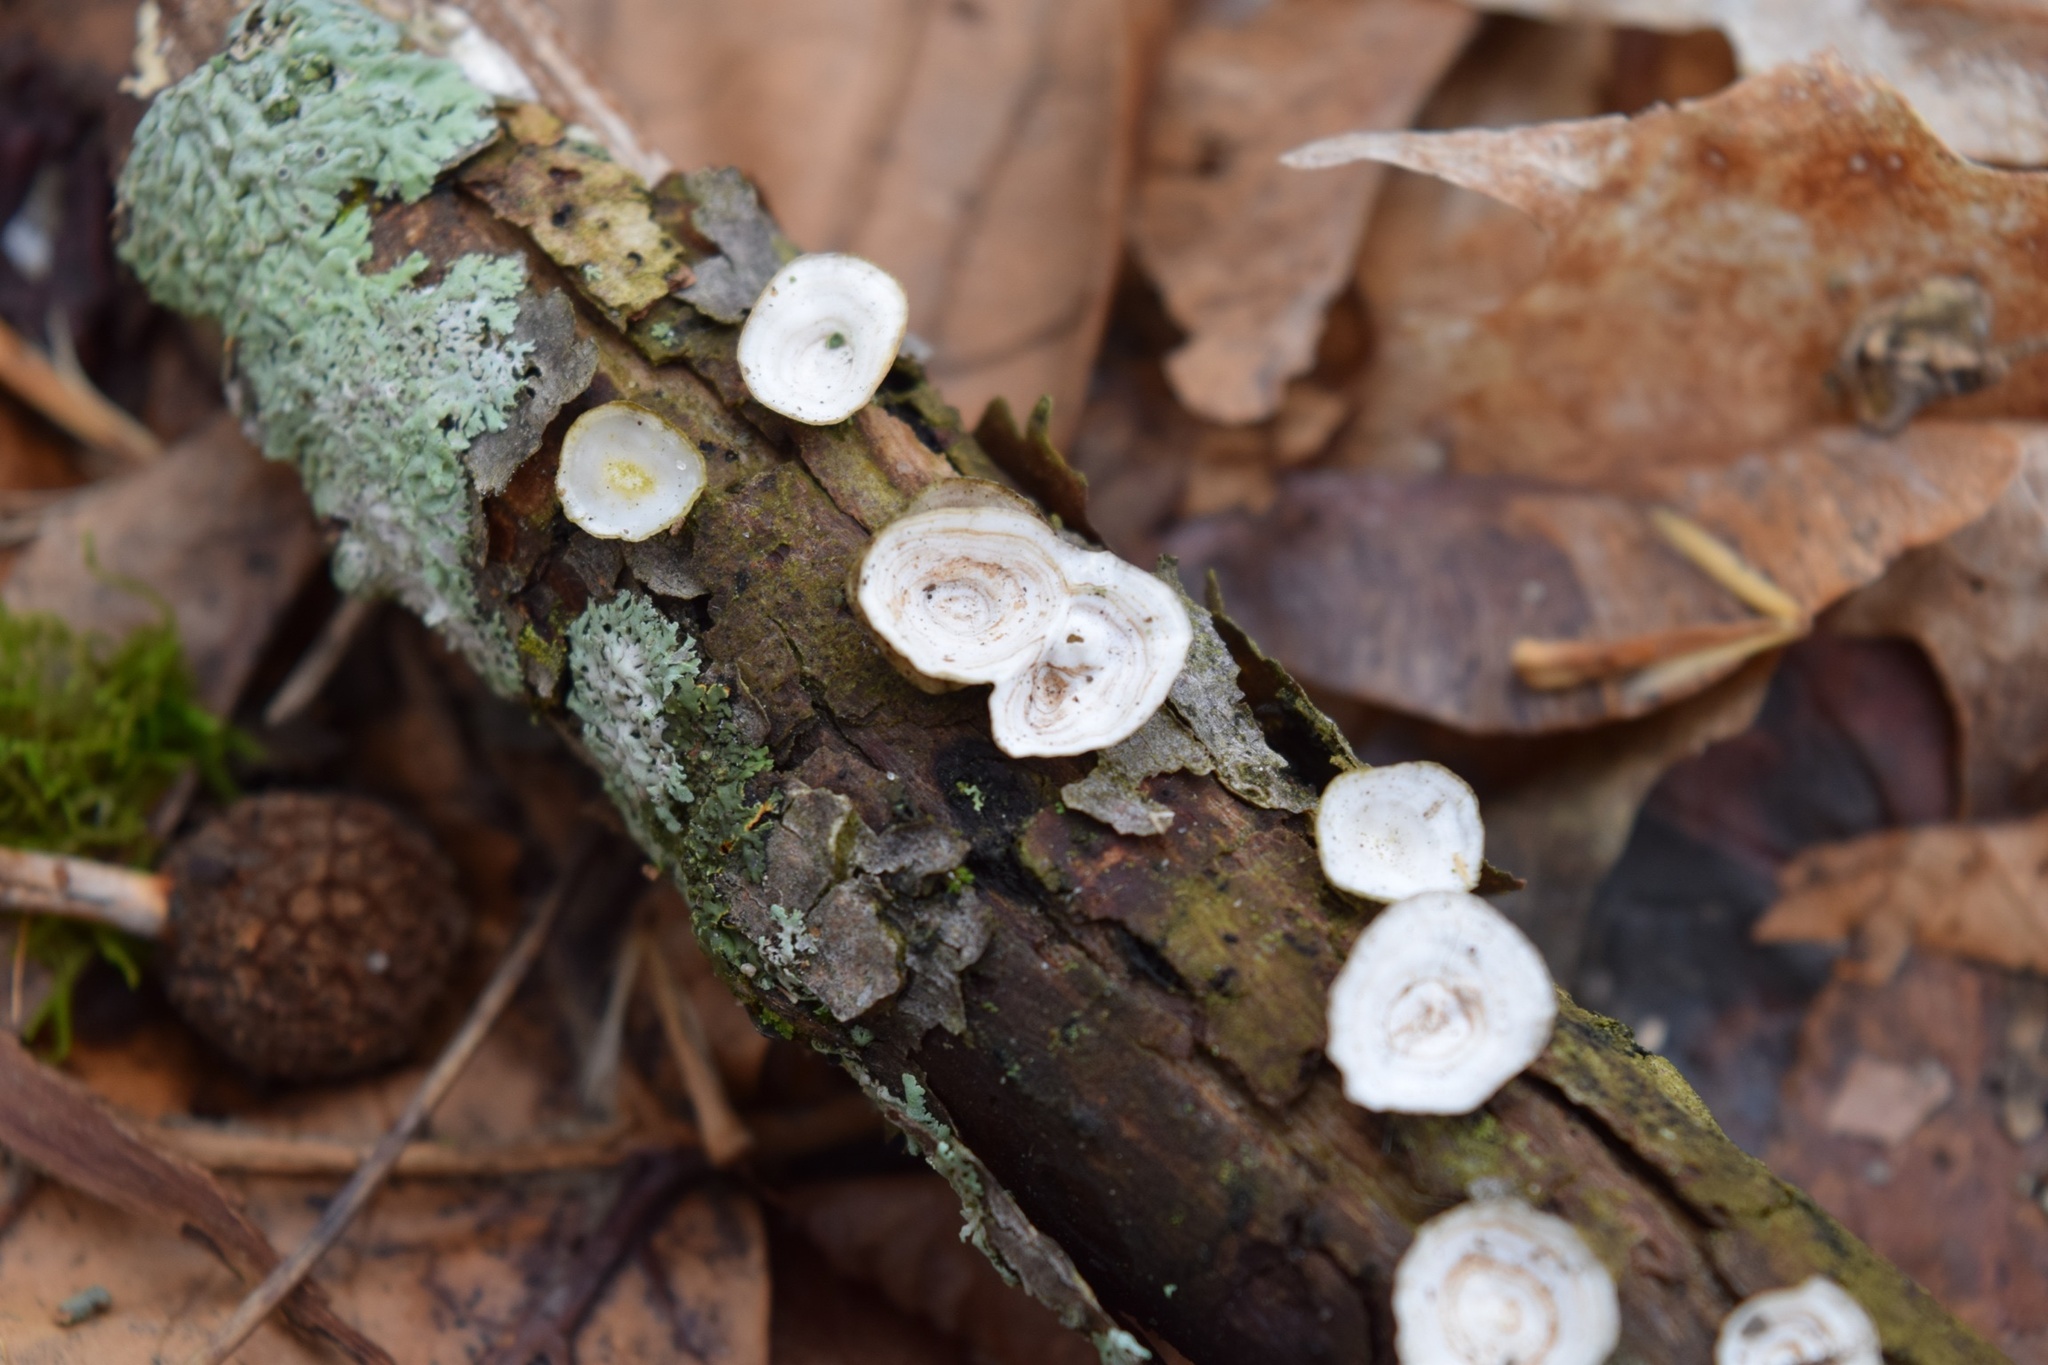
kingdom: Fungi
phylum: Basidiomycota
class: Agaricomycetes
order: Polyporales
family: Polyporaceae
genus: Poronidulus
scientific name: Poronidulus conchifer
